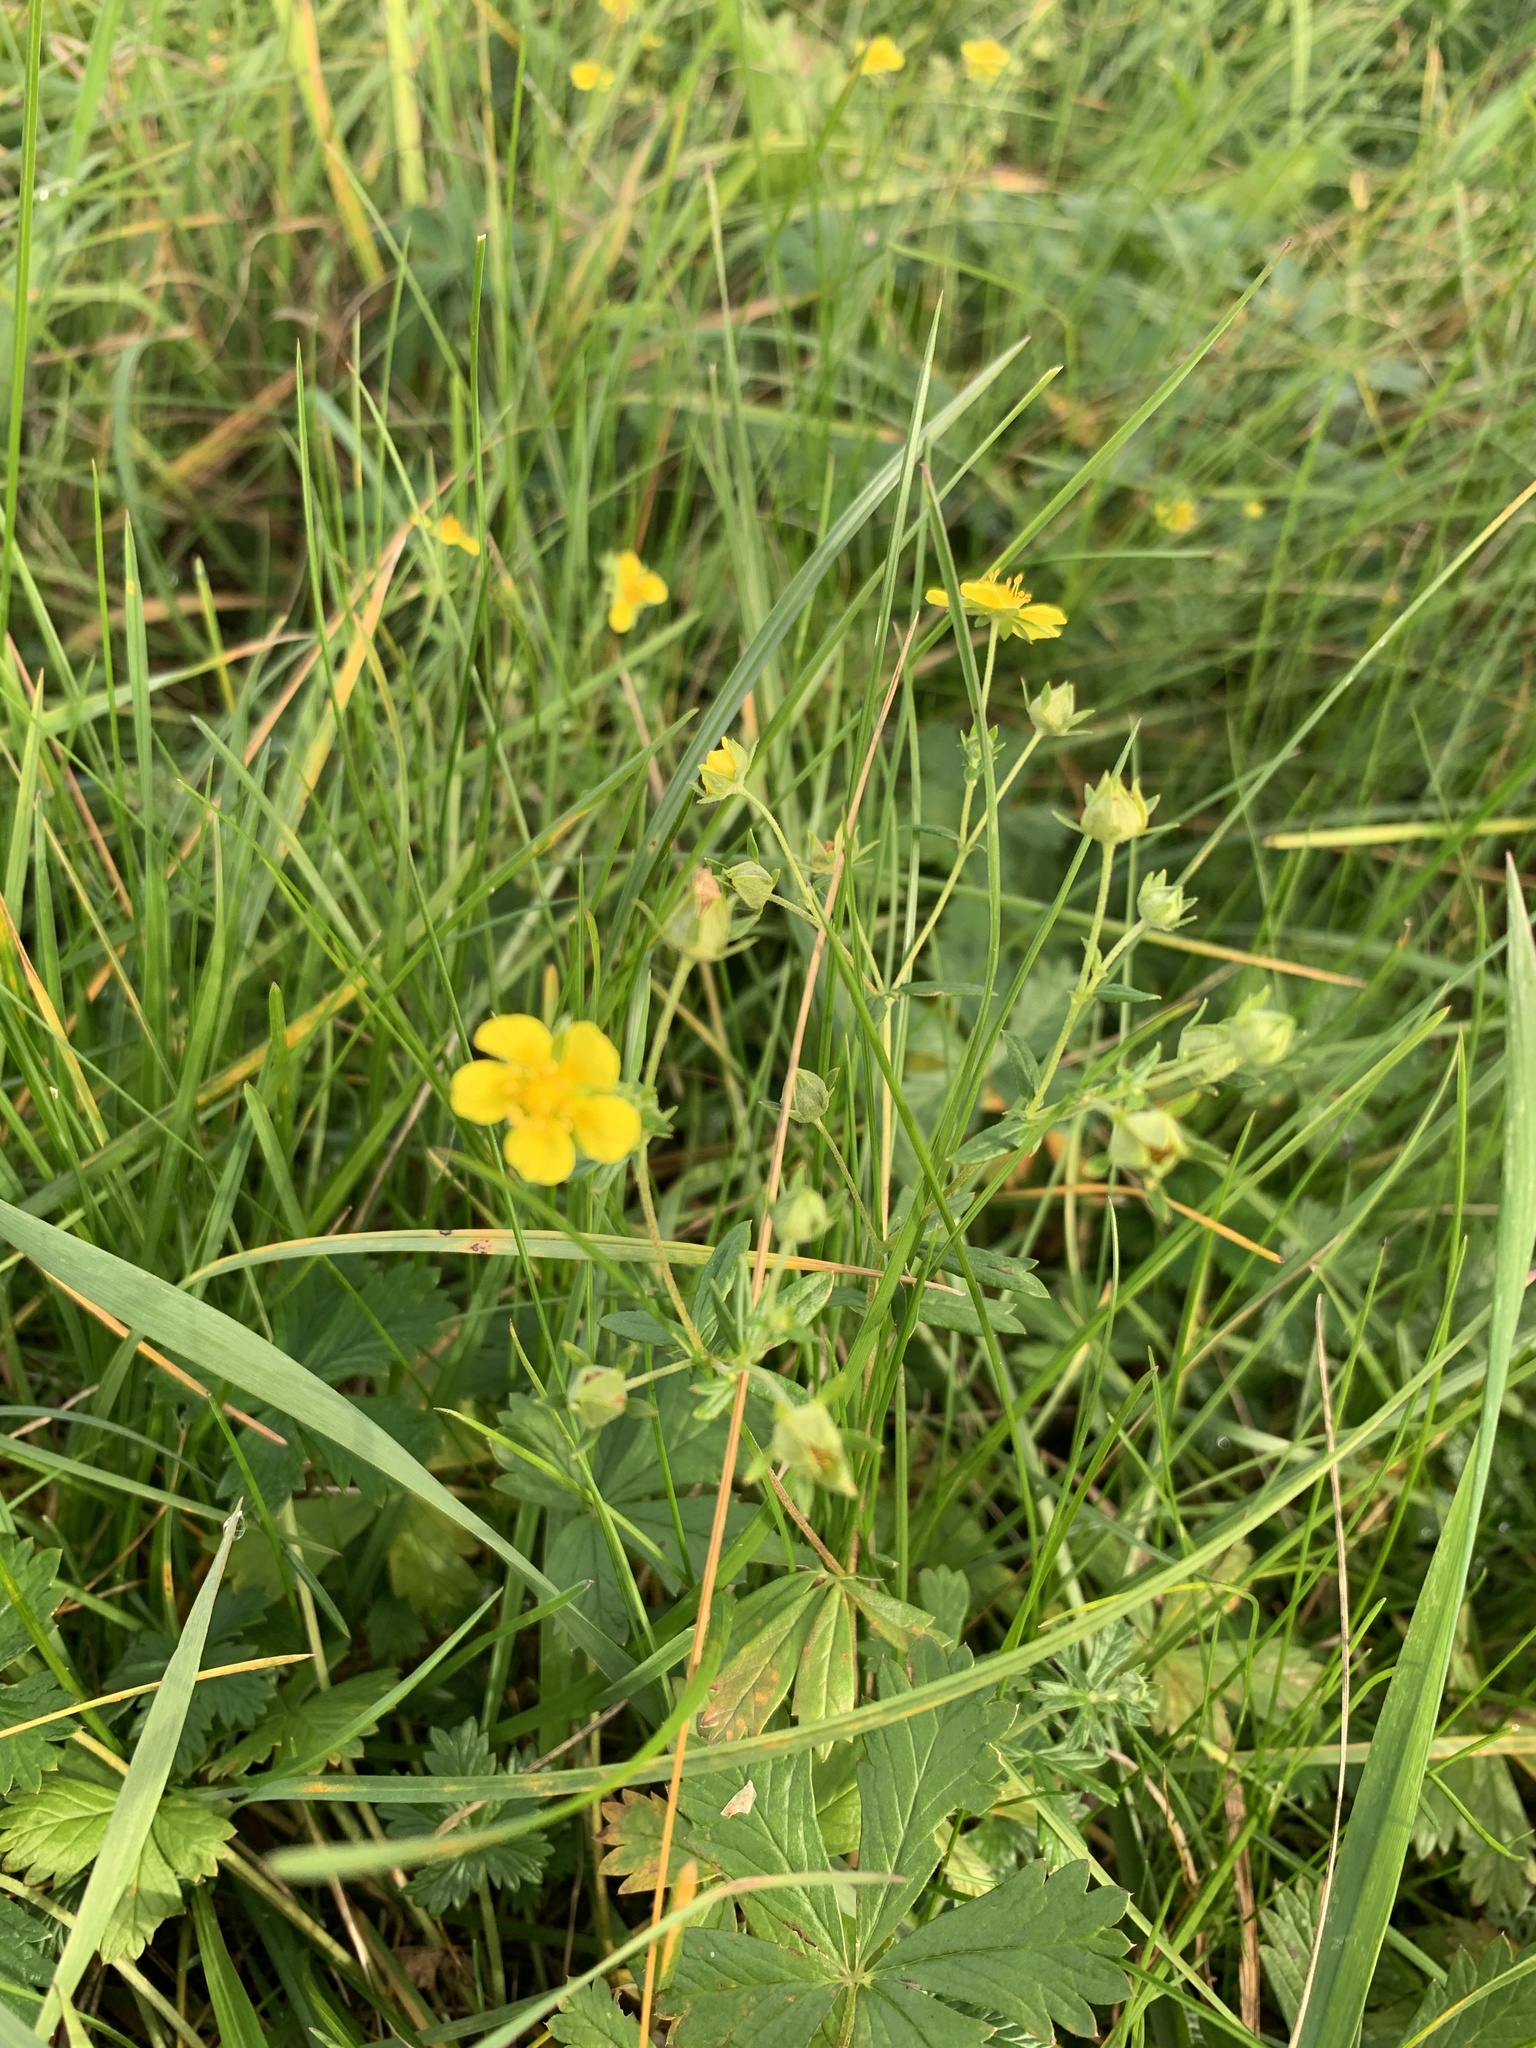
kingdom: Plantae
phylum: Tracheophyta
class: Magnoliopsida
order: Rosales
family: Rosaceae
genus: Potentilla
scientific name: Potentilla argentea
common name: Hoary cinquefoil
